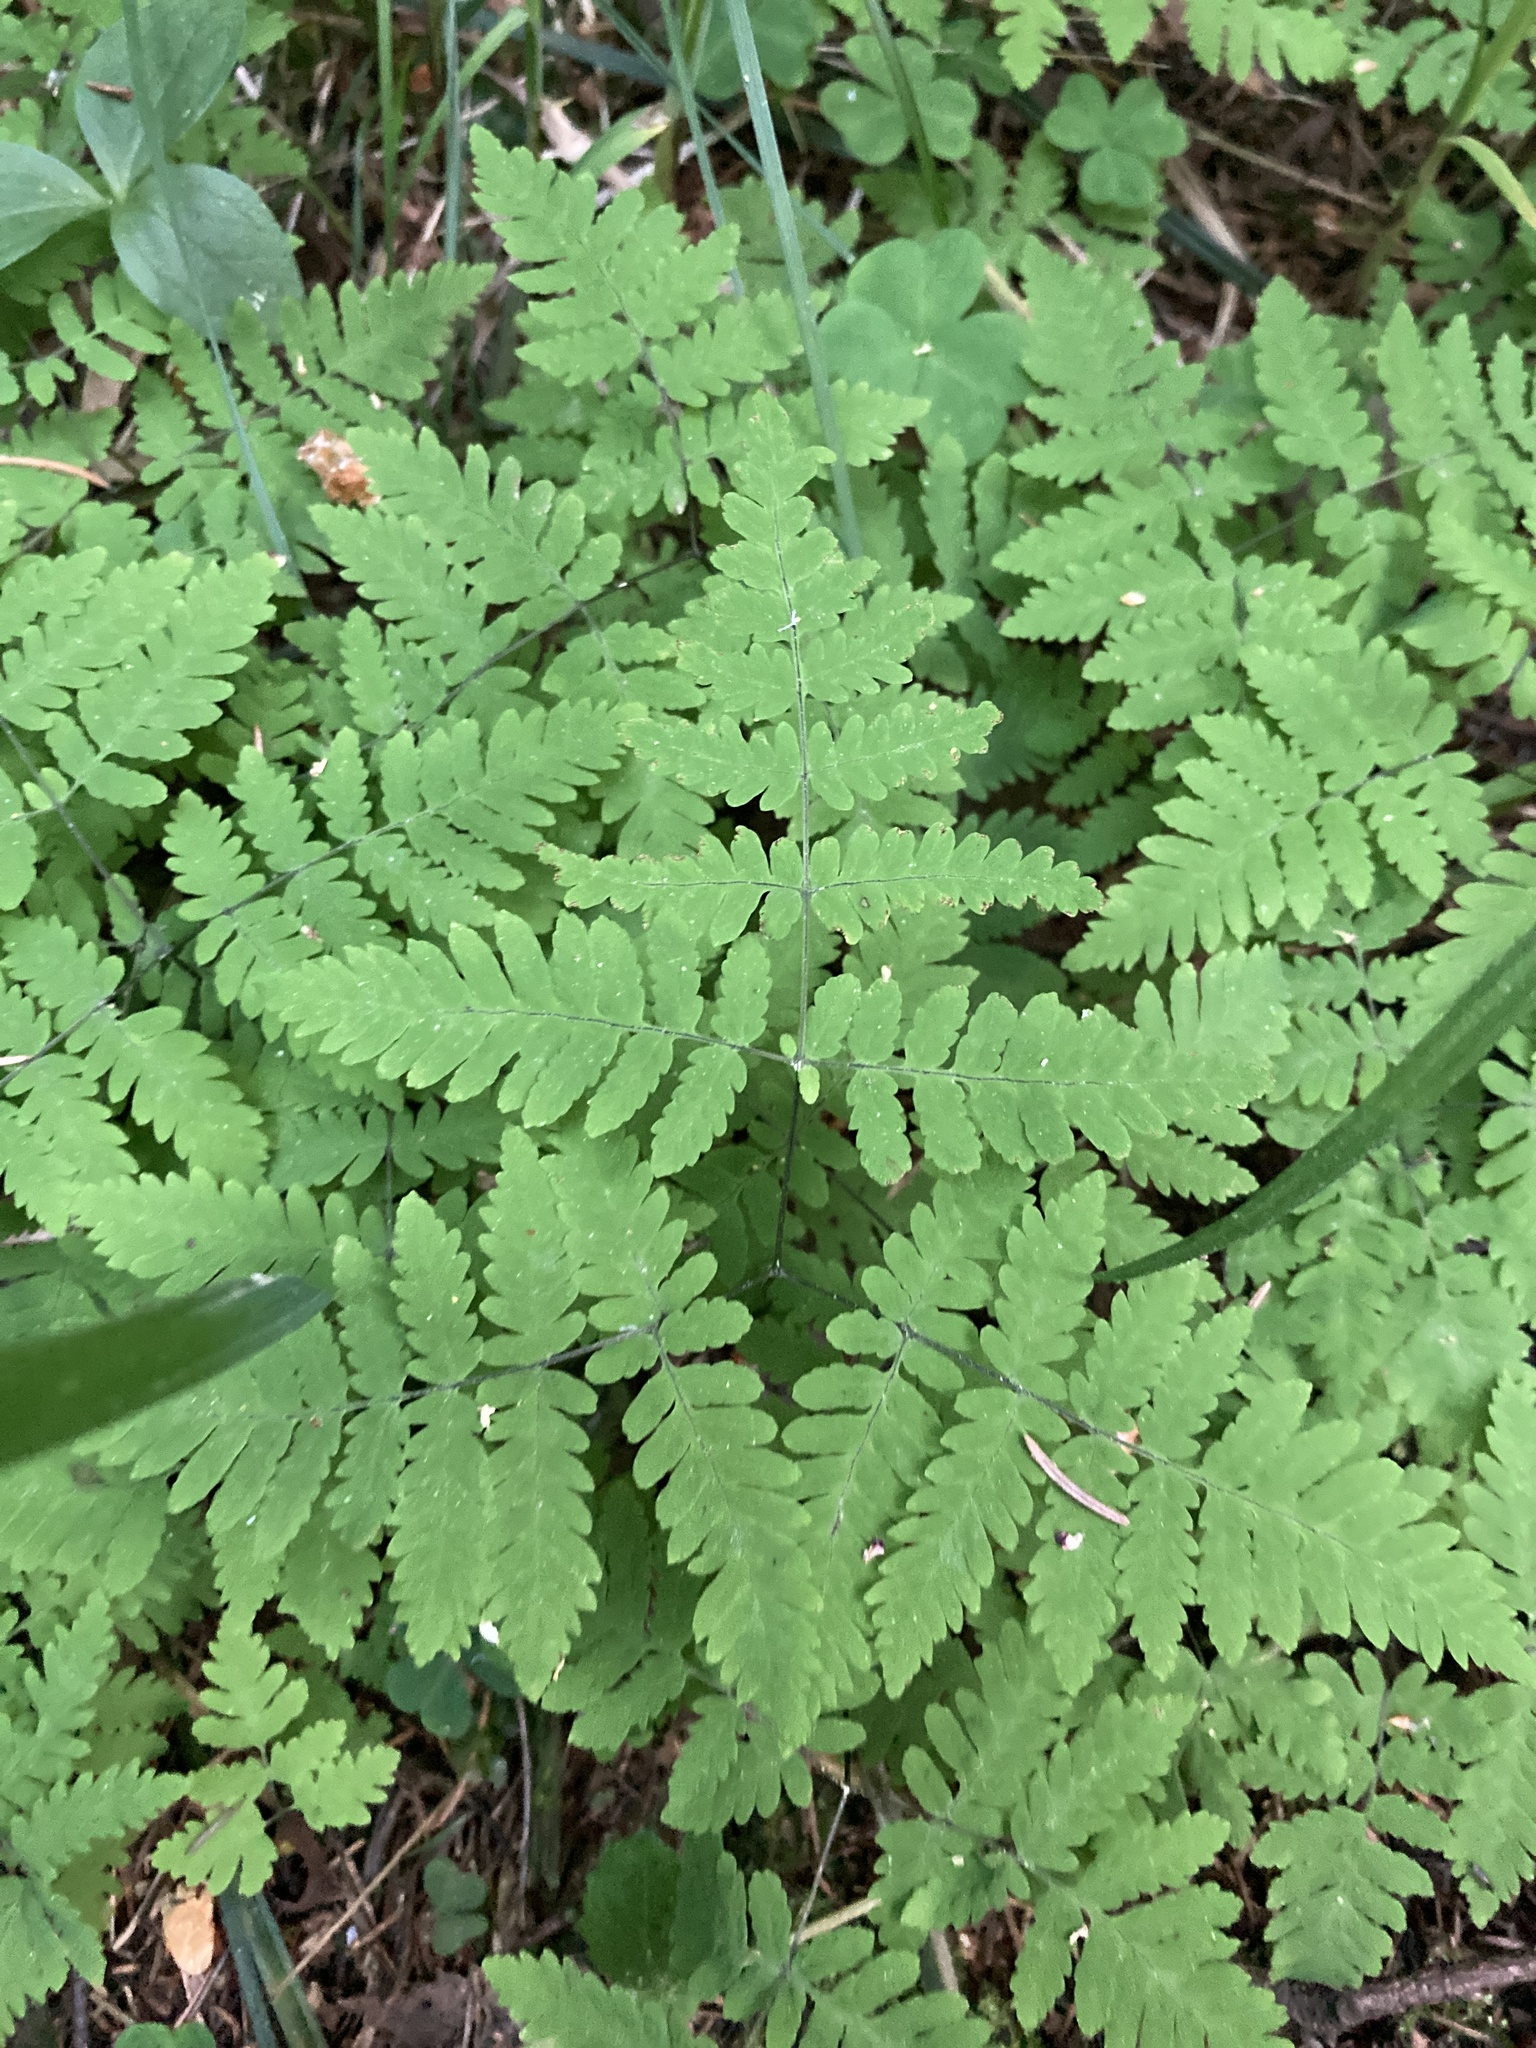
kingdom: Plantae
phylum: Tracheophyta
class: Polypodiopsida
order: Polypodiales
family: Cystopteridaceae
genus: Gymnocarpium
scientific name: Gymnocarpium dryopteris
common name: Oak fern
